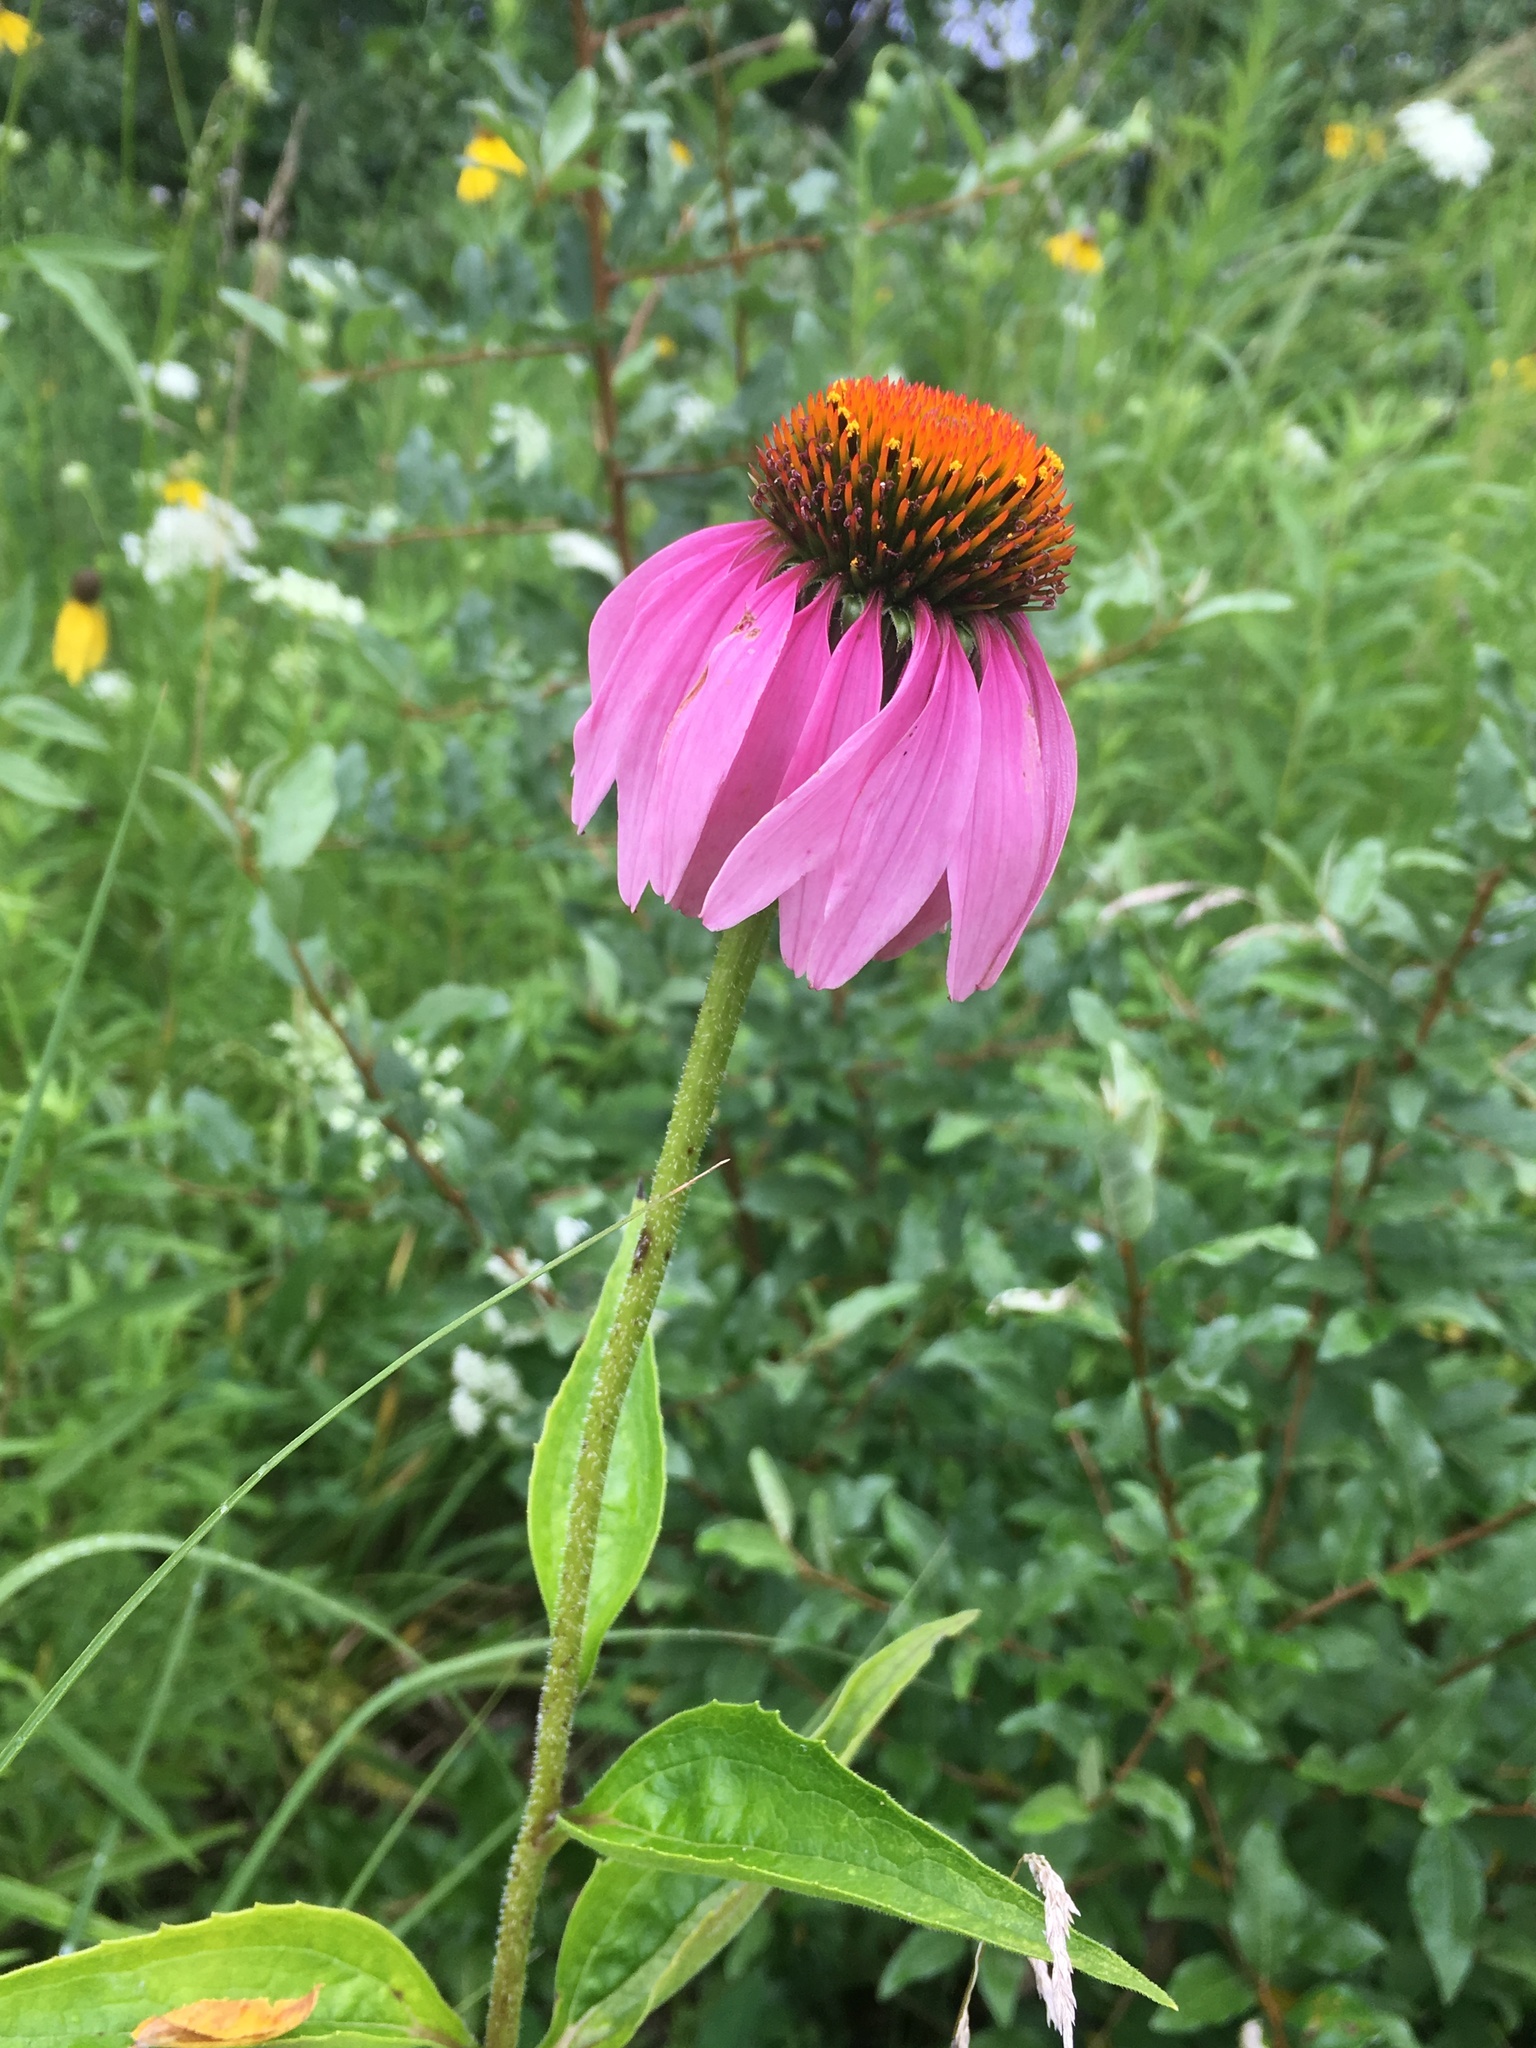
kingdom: Plantae
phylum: Tracheophyta
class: Magnoliopsida
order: Asterales
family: Asteraceae
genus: Echinacea
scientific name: Echinacea purpurea
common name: Broad-leaved purple coneflower
